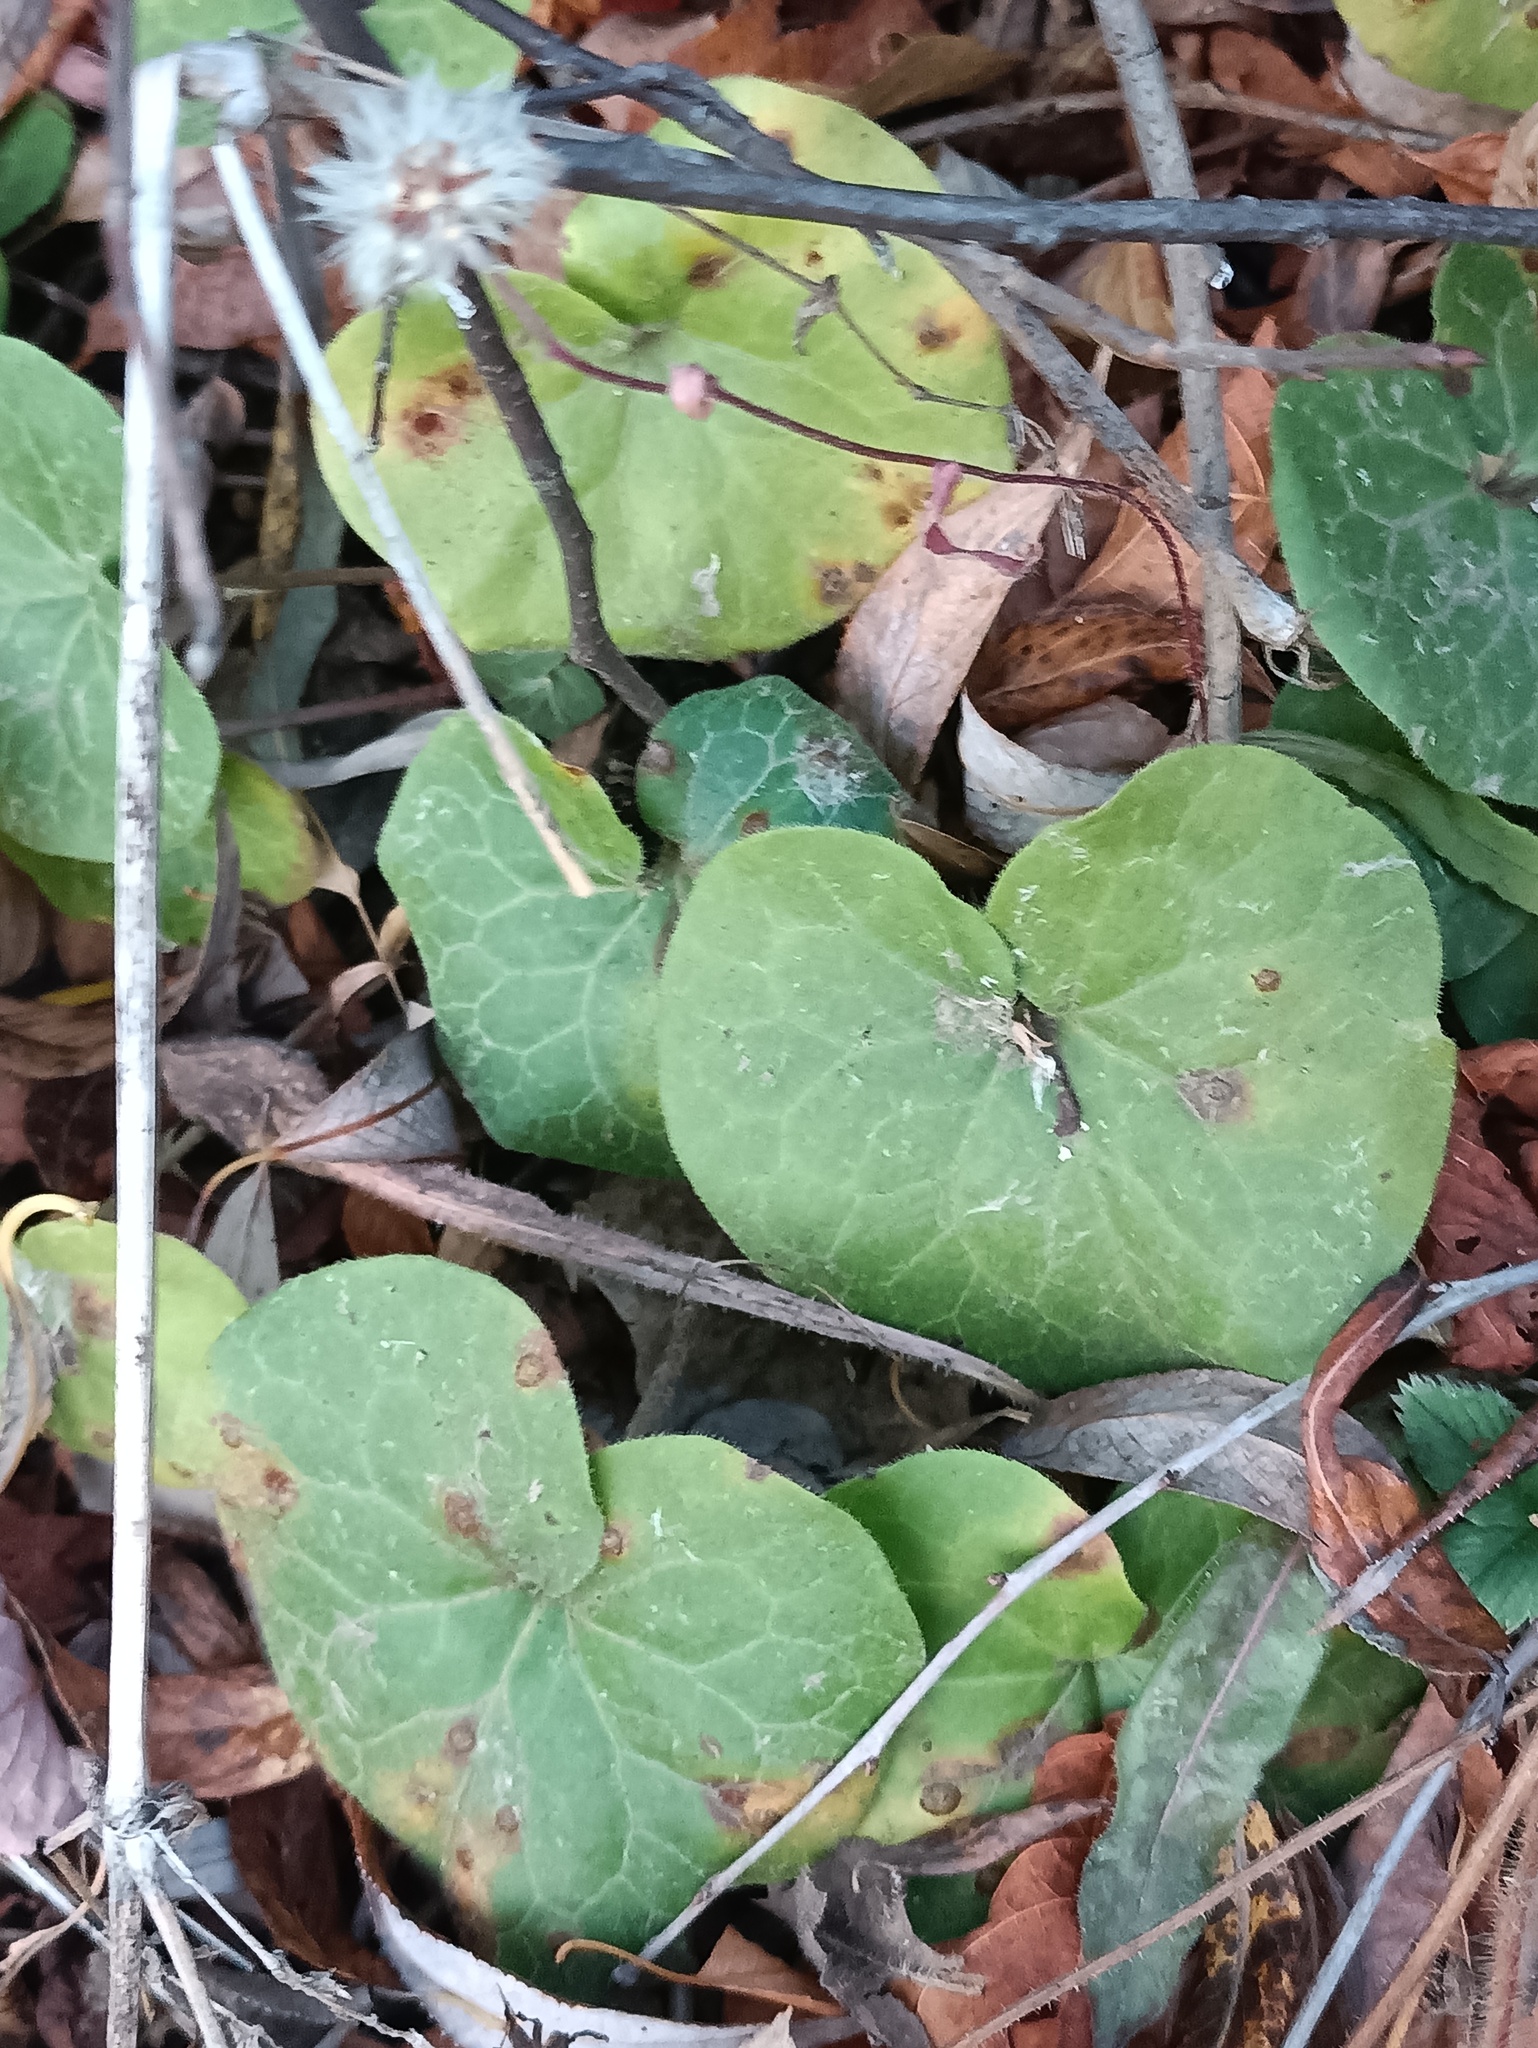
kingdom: Plantae
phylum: Tracheophyta
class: Magnoliopsida
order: Piperales
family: Aristolochiaceae
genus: Asarum
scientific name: Asarum europaeum
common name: Asarabacca
